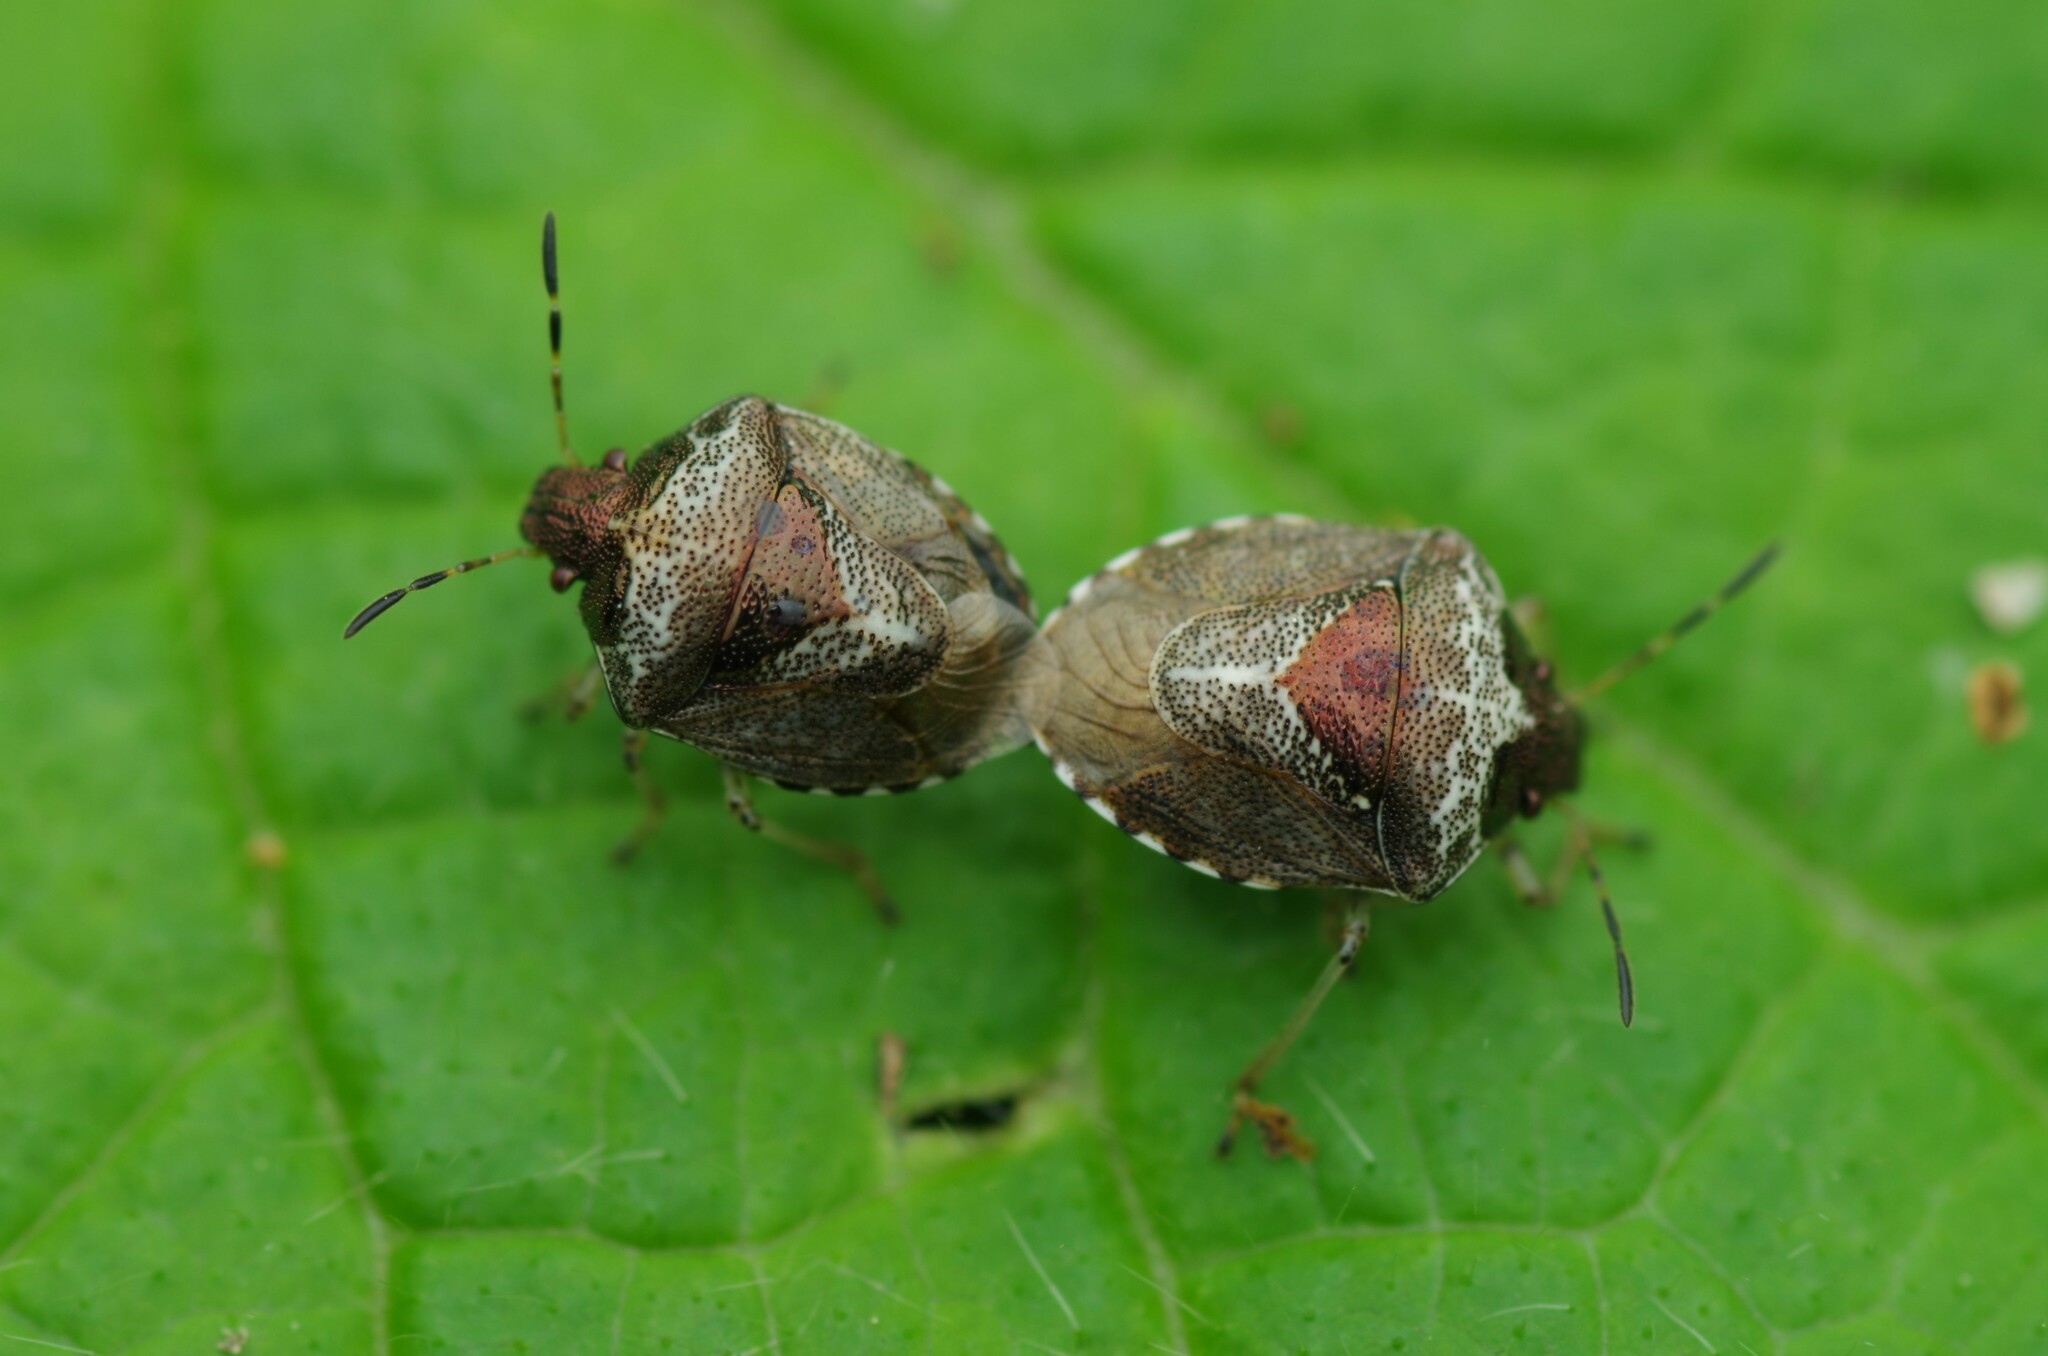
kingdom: Animalia
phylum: Arthropoda
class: Insecta
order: Hemiptera
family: Pentatomidae
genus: Eysarcoris
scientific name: Eysarcoris venustissimus
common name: Woundwort shieldbug
